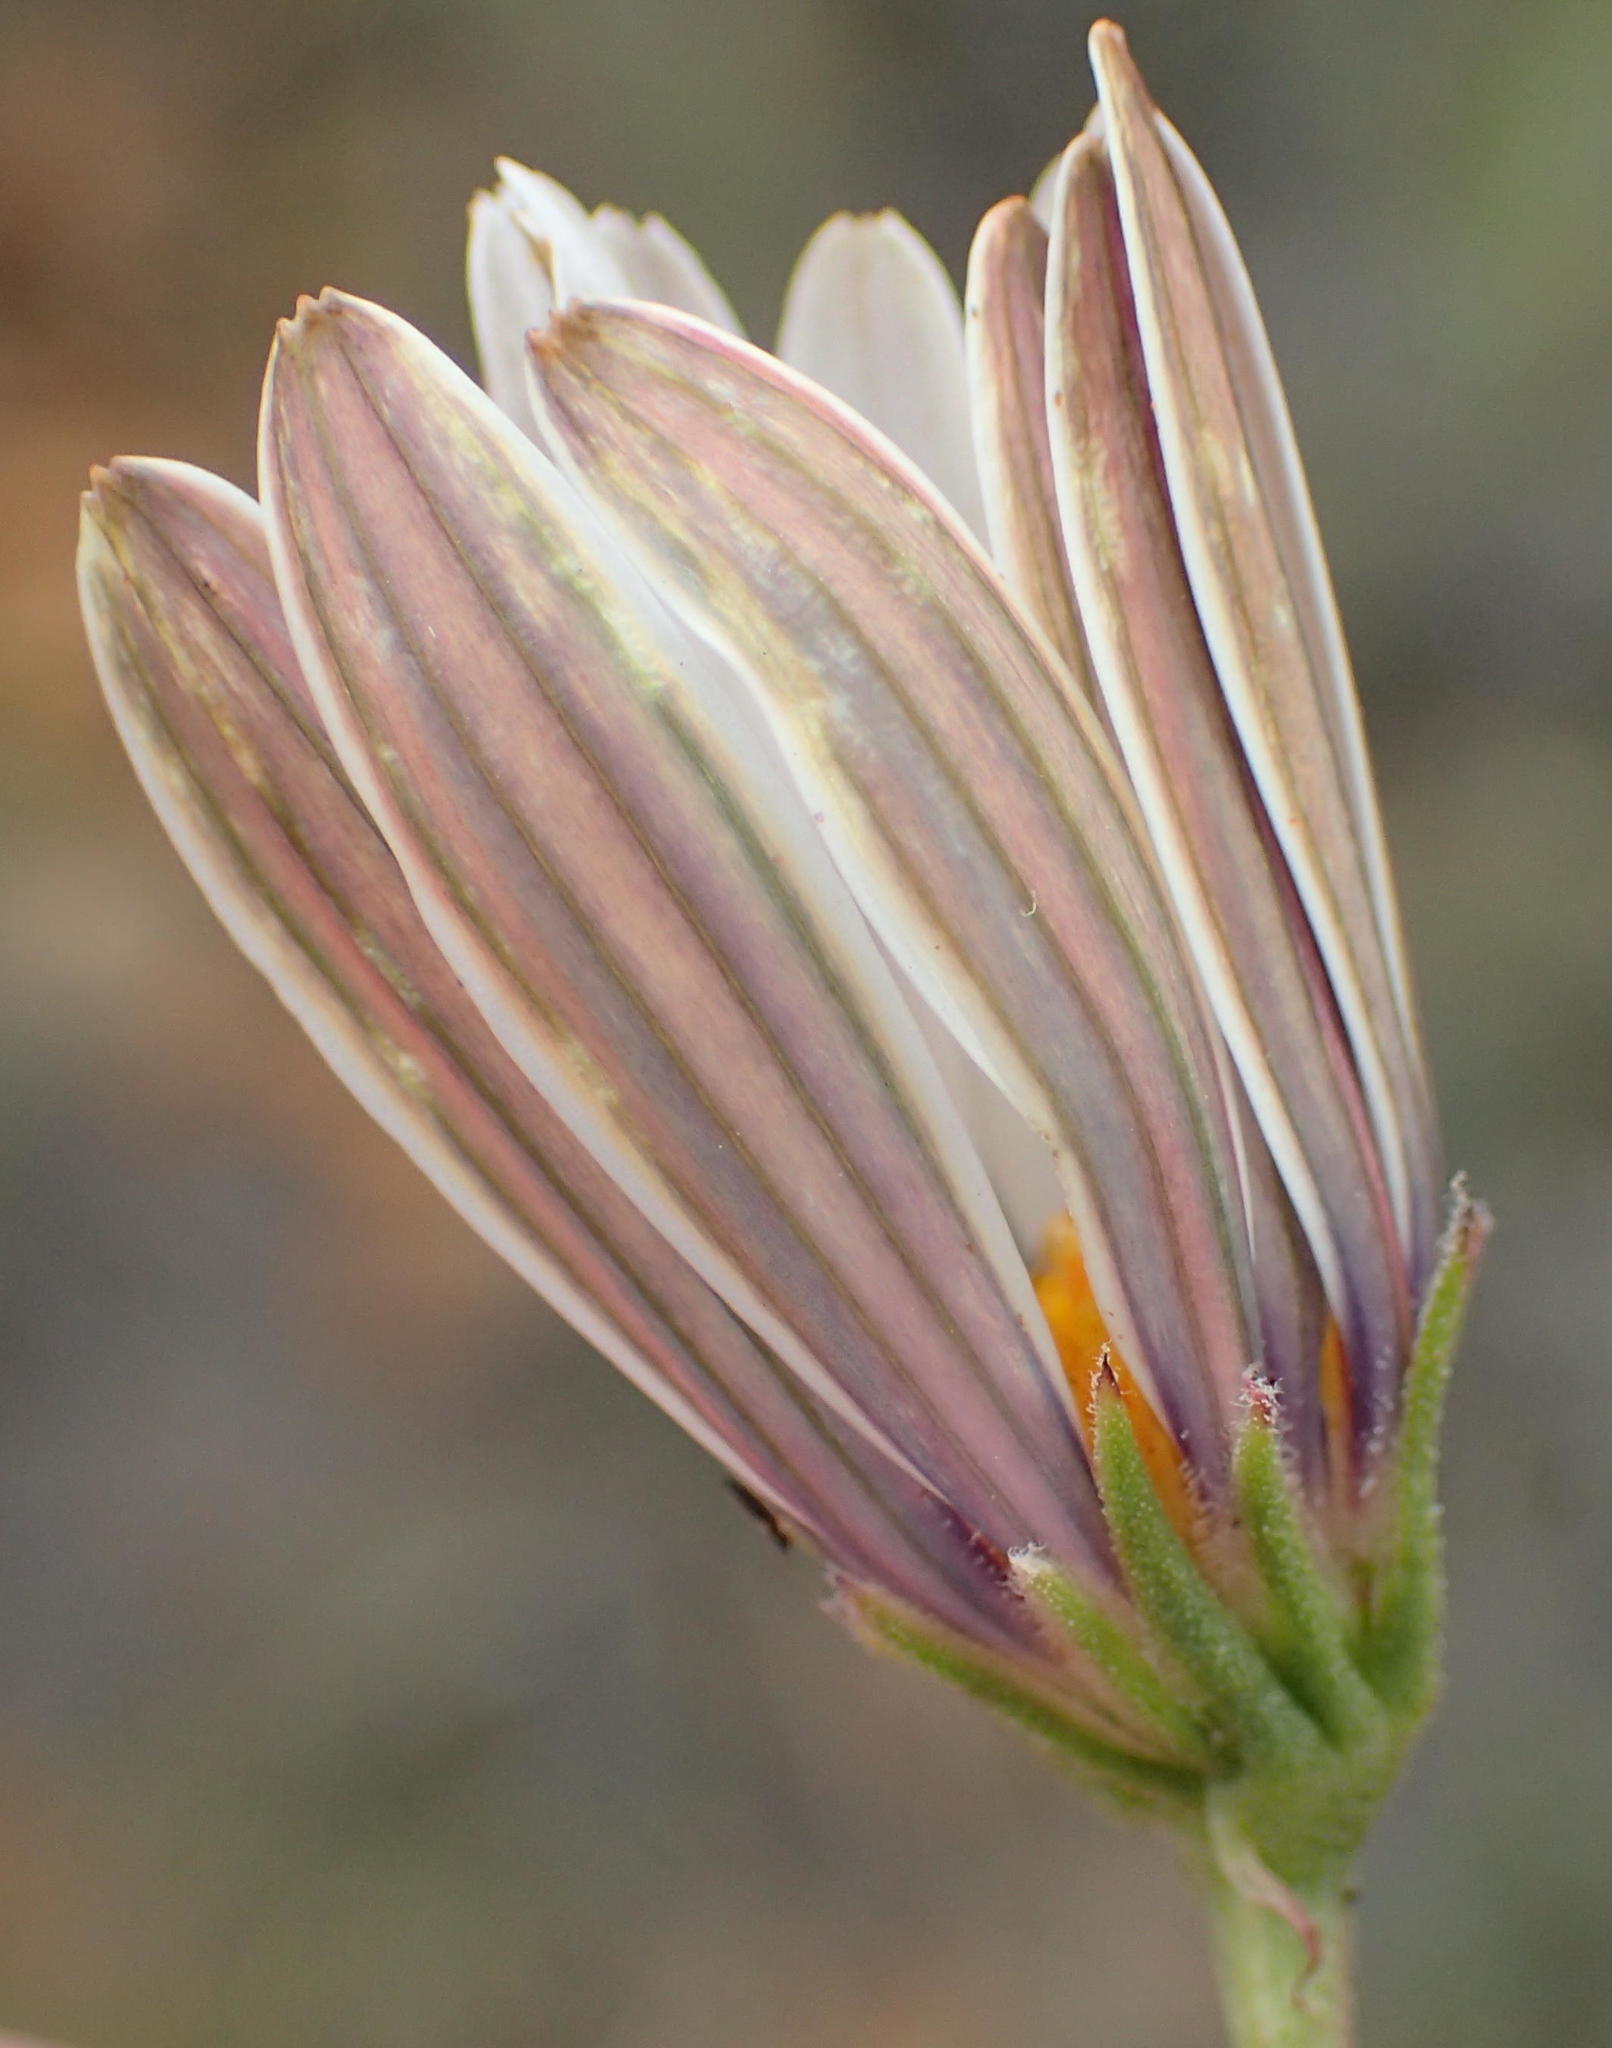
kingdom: Plantae
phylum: Tracheophyta
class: Magnoliopsida
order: Asterales
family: Asteraceae
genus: Dimorphotheca
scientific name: Dimorphotheca zeyheri
